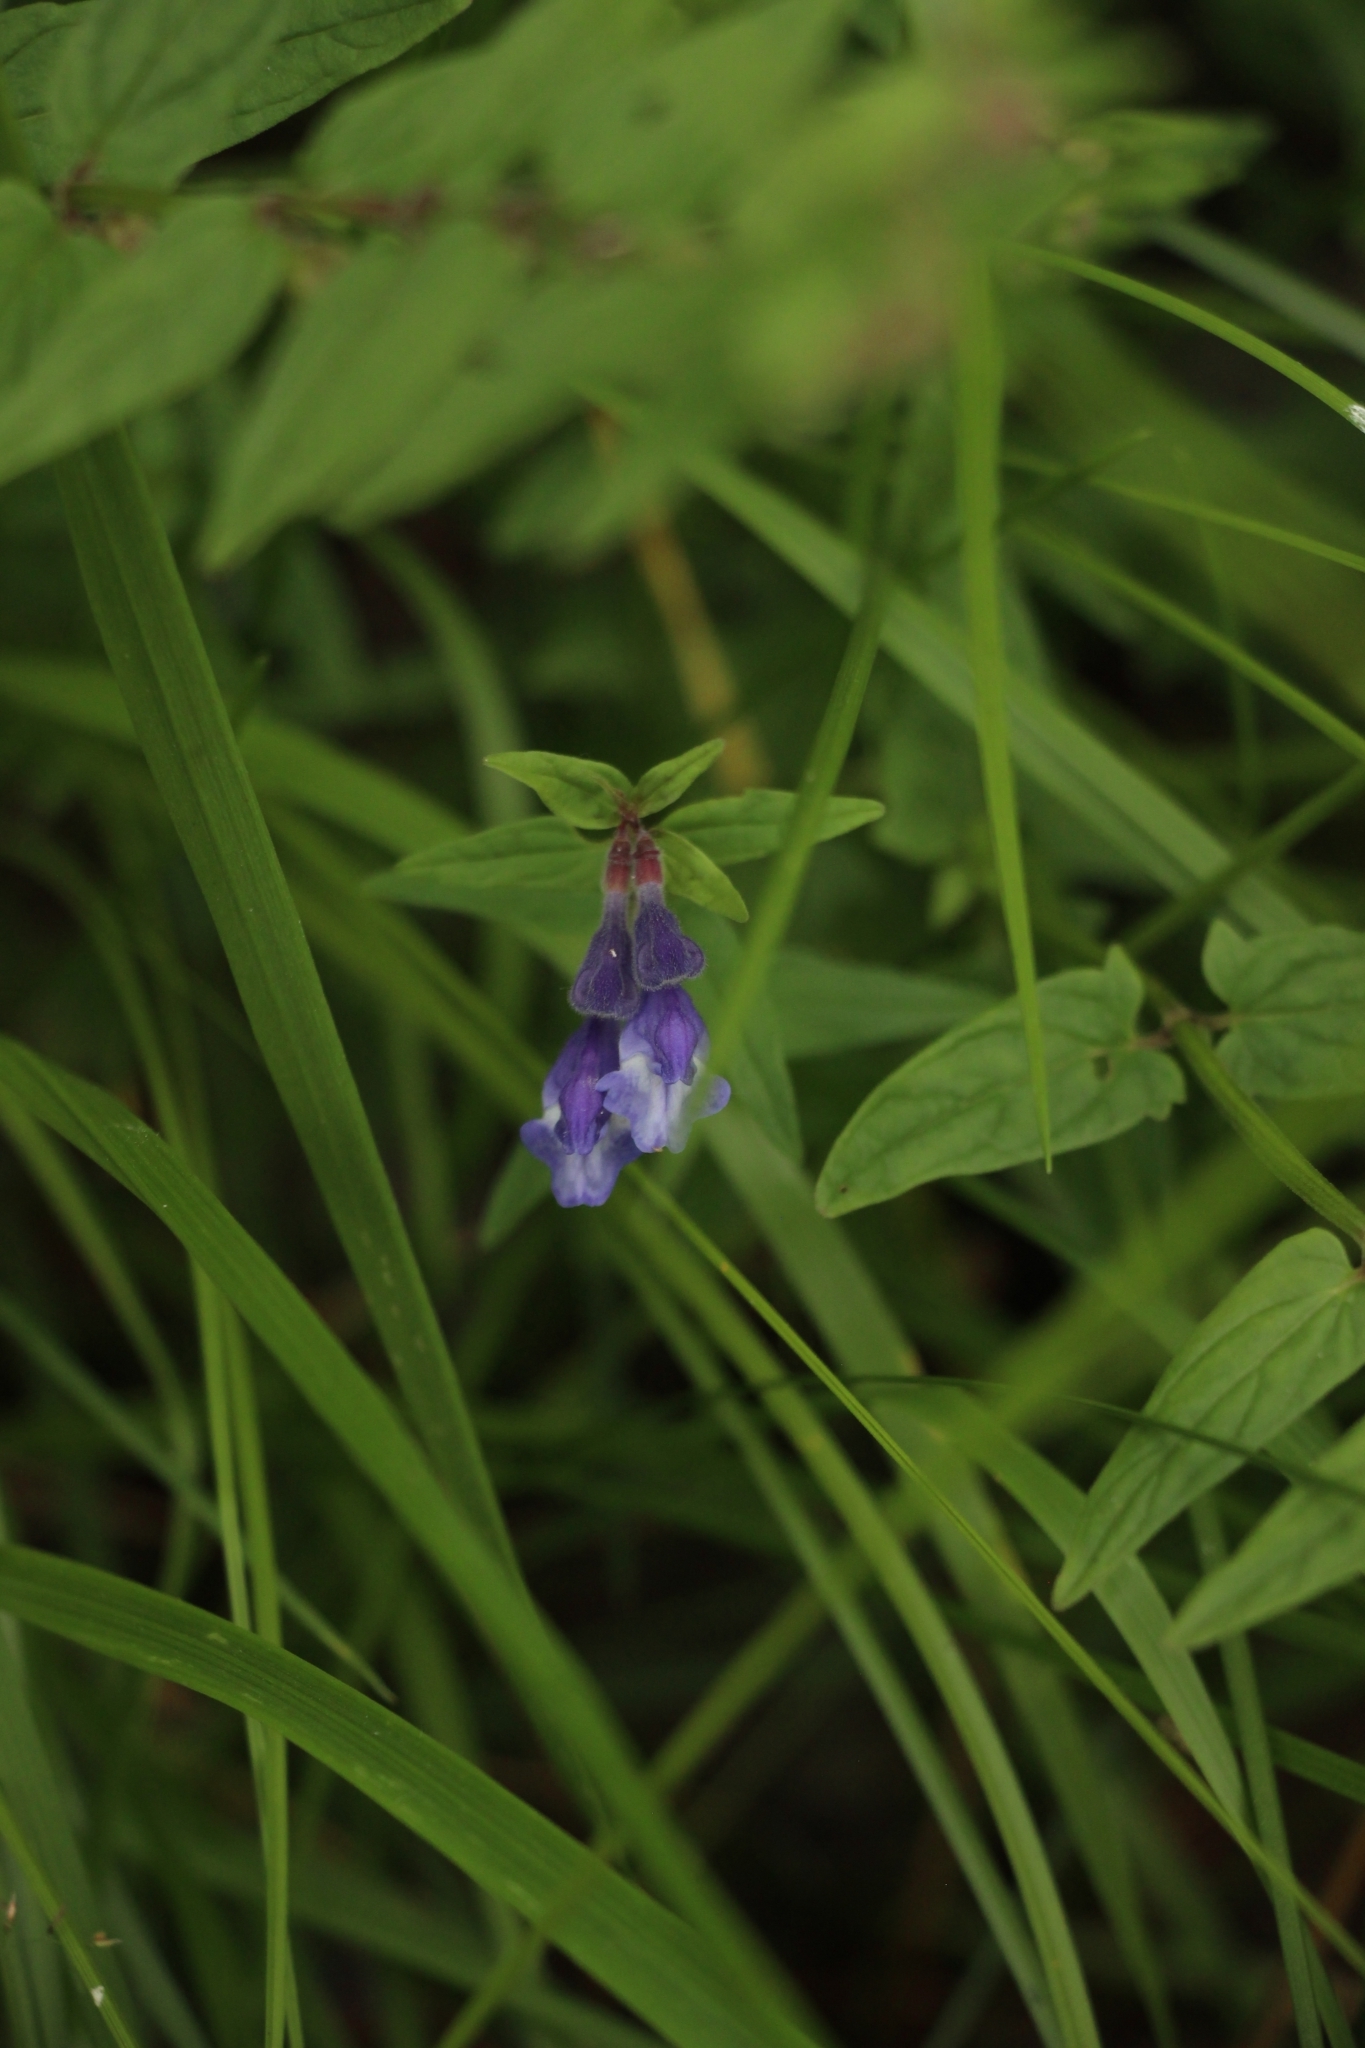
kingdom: Plantae
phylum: Tracheophyta
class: Magnoliopsida
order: Lamiales
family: Lamiaceae
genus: Scutellaria
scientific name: Scutellaria galericulata
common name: Skullcap
